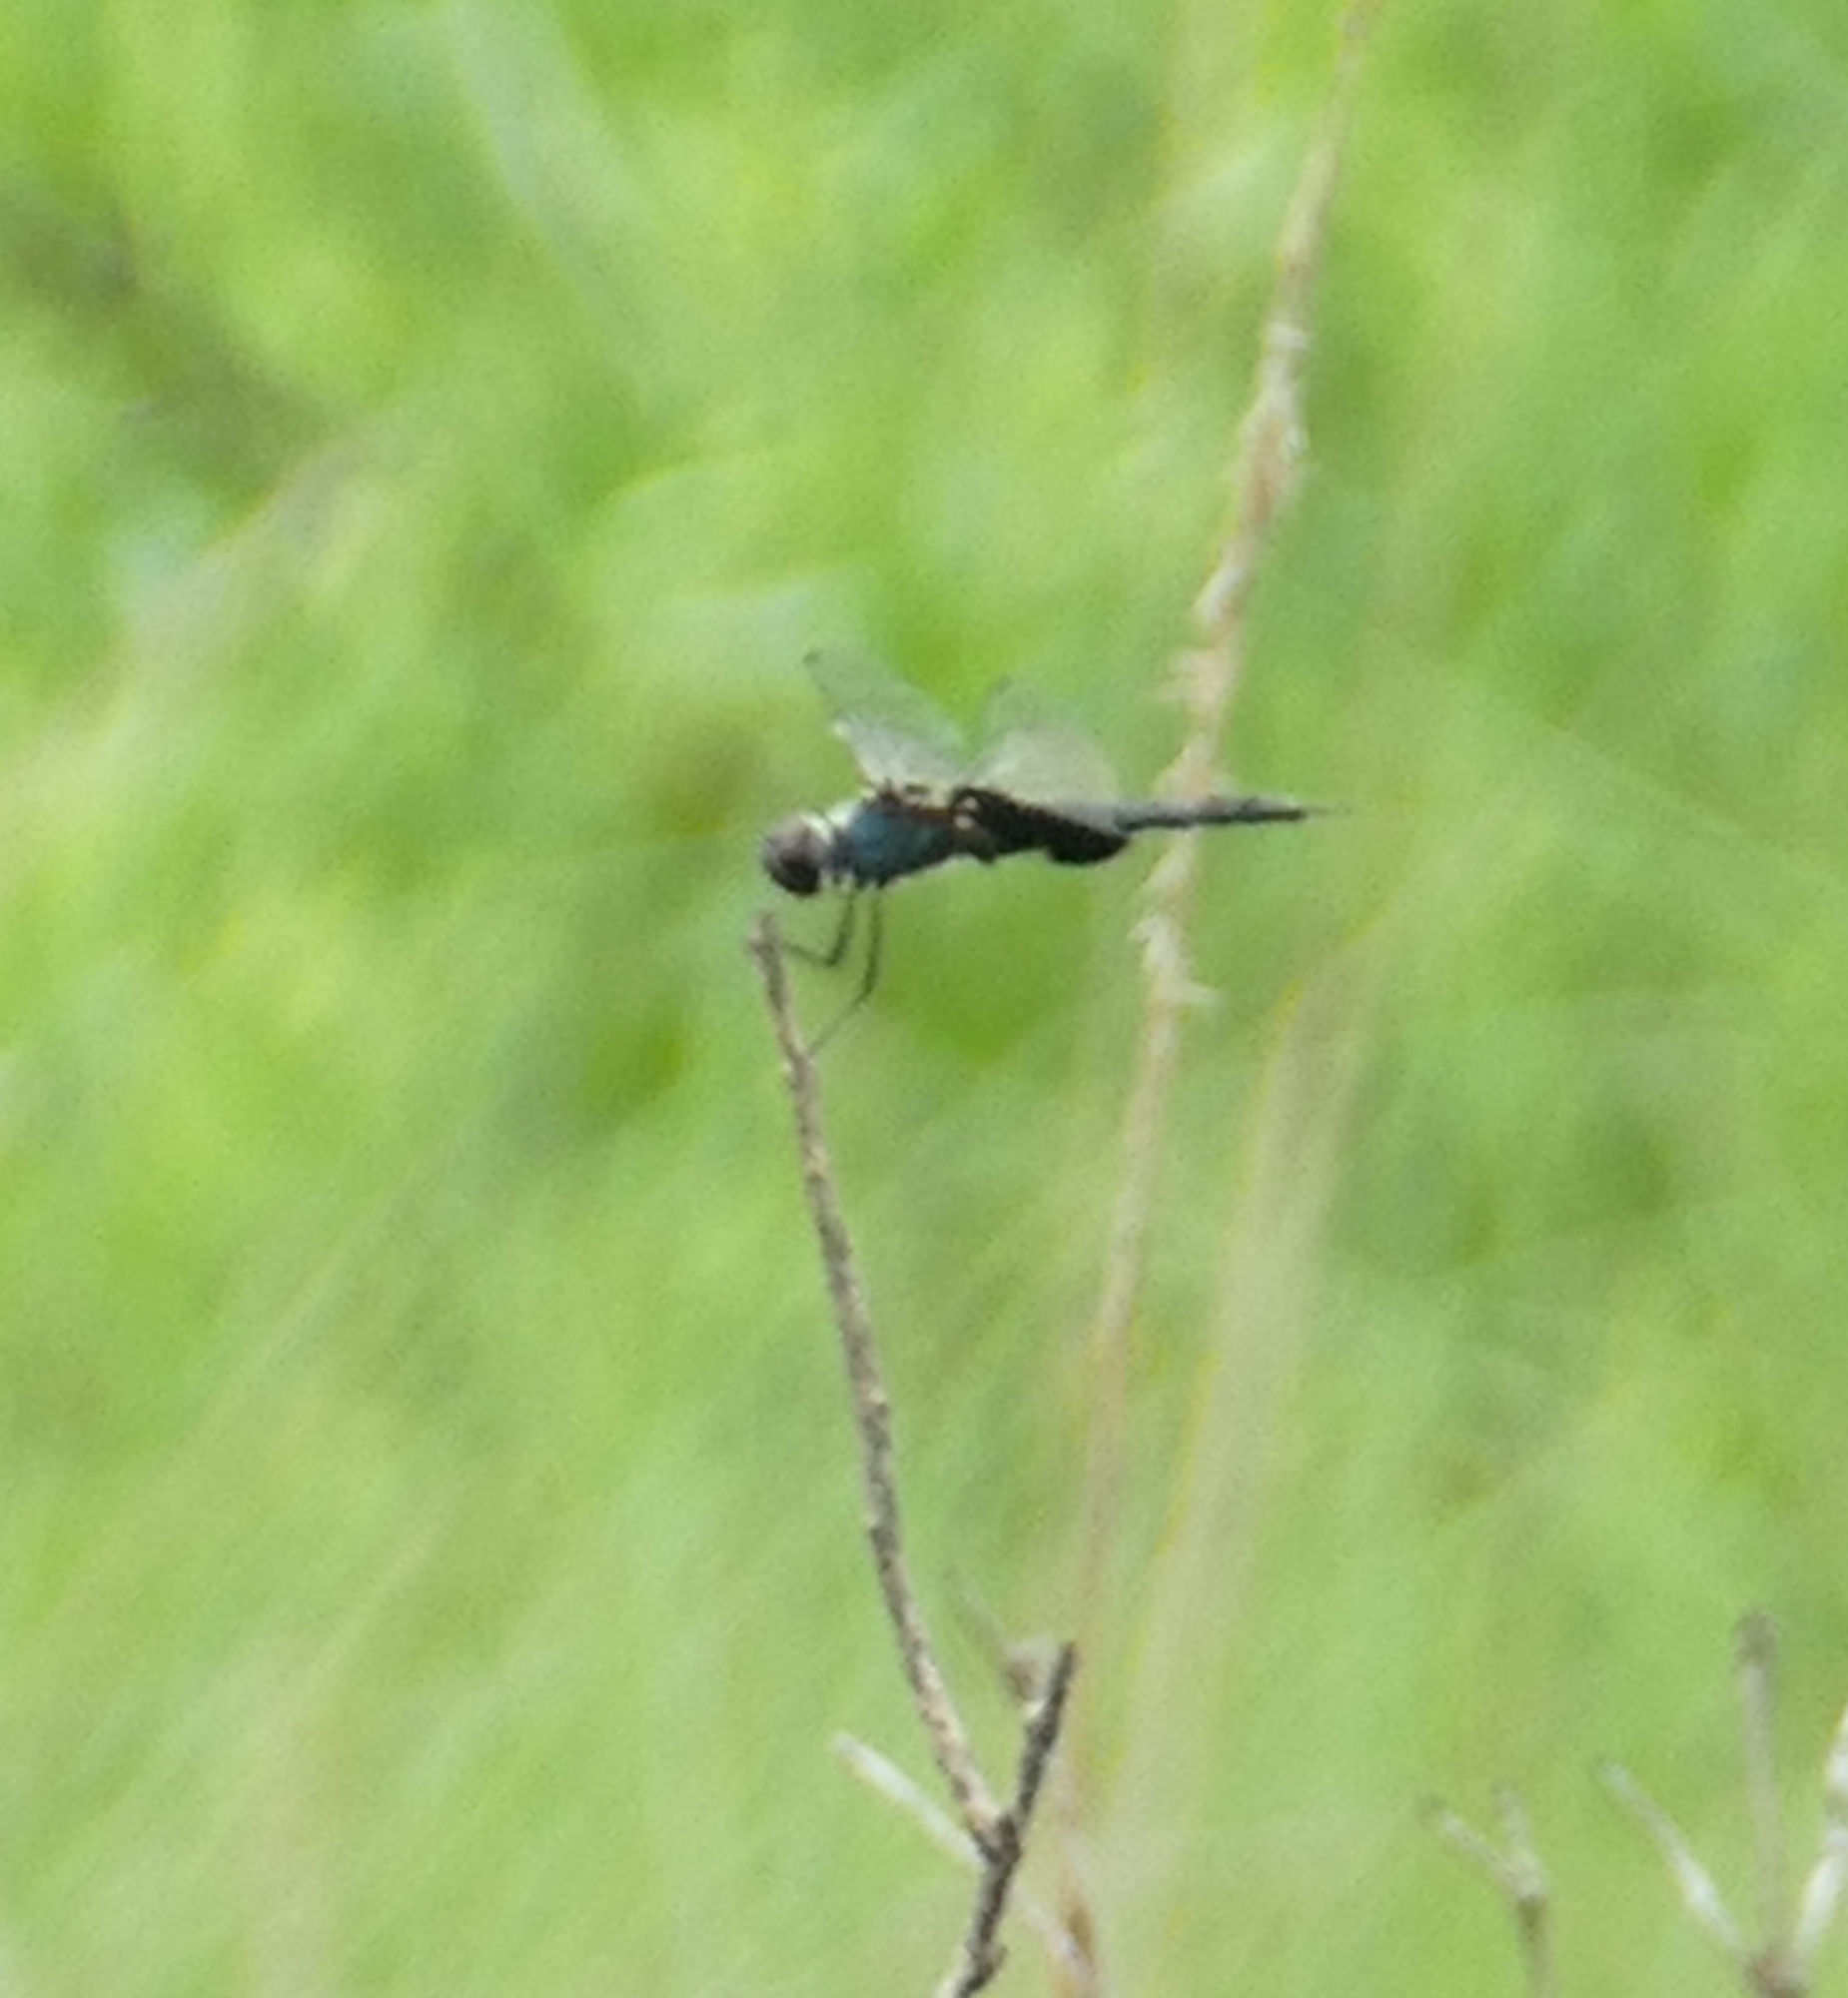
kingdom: Animalia
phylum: Arthropoda
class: Insecta
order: Odonata
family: Libellulidae
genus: Tramea
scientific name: Tramea lacerata
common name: Black saddlebags
